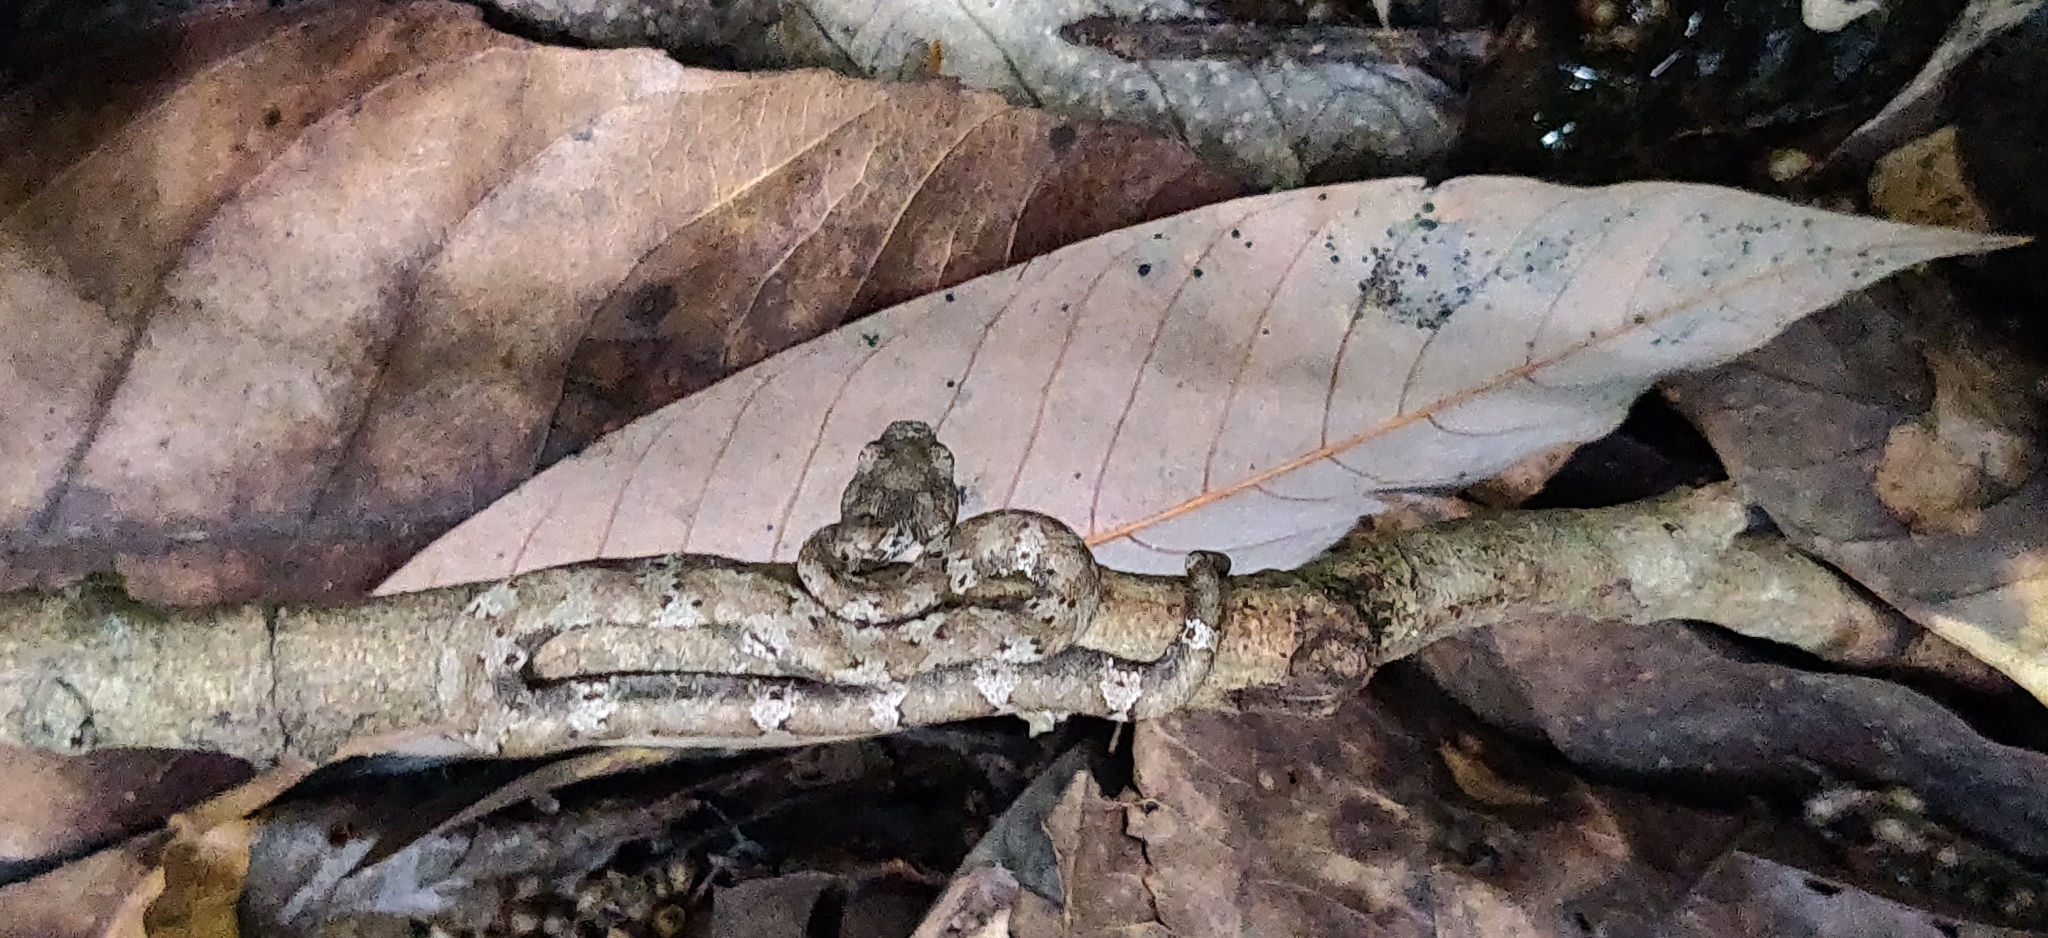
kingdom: Animalia
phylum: Chordata
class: Squamata
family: Viperidae
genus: Craspedocephalus
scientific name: Craspedocephalus anamallensis
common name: Malabarian pit viper
